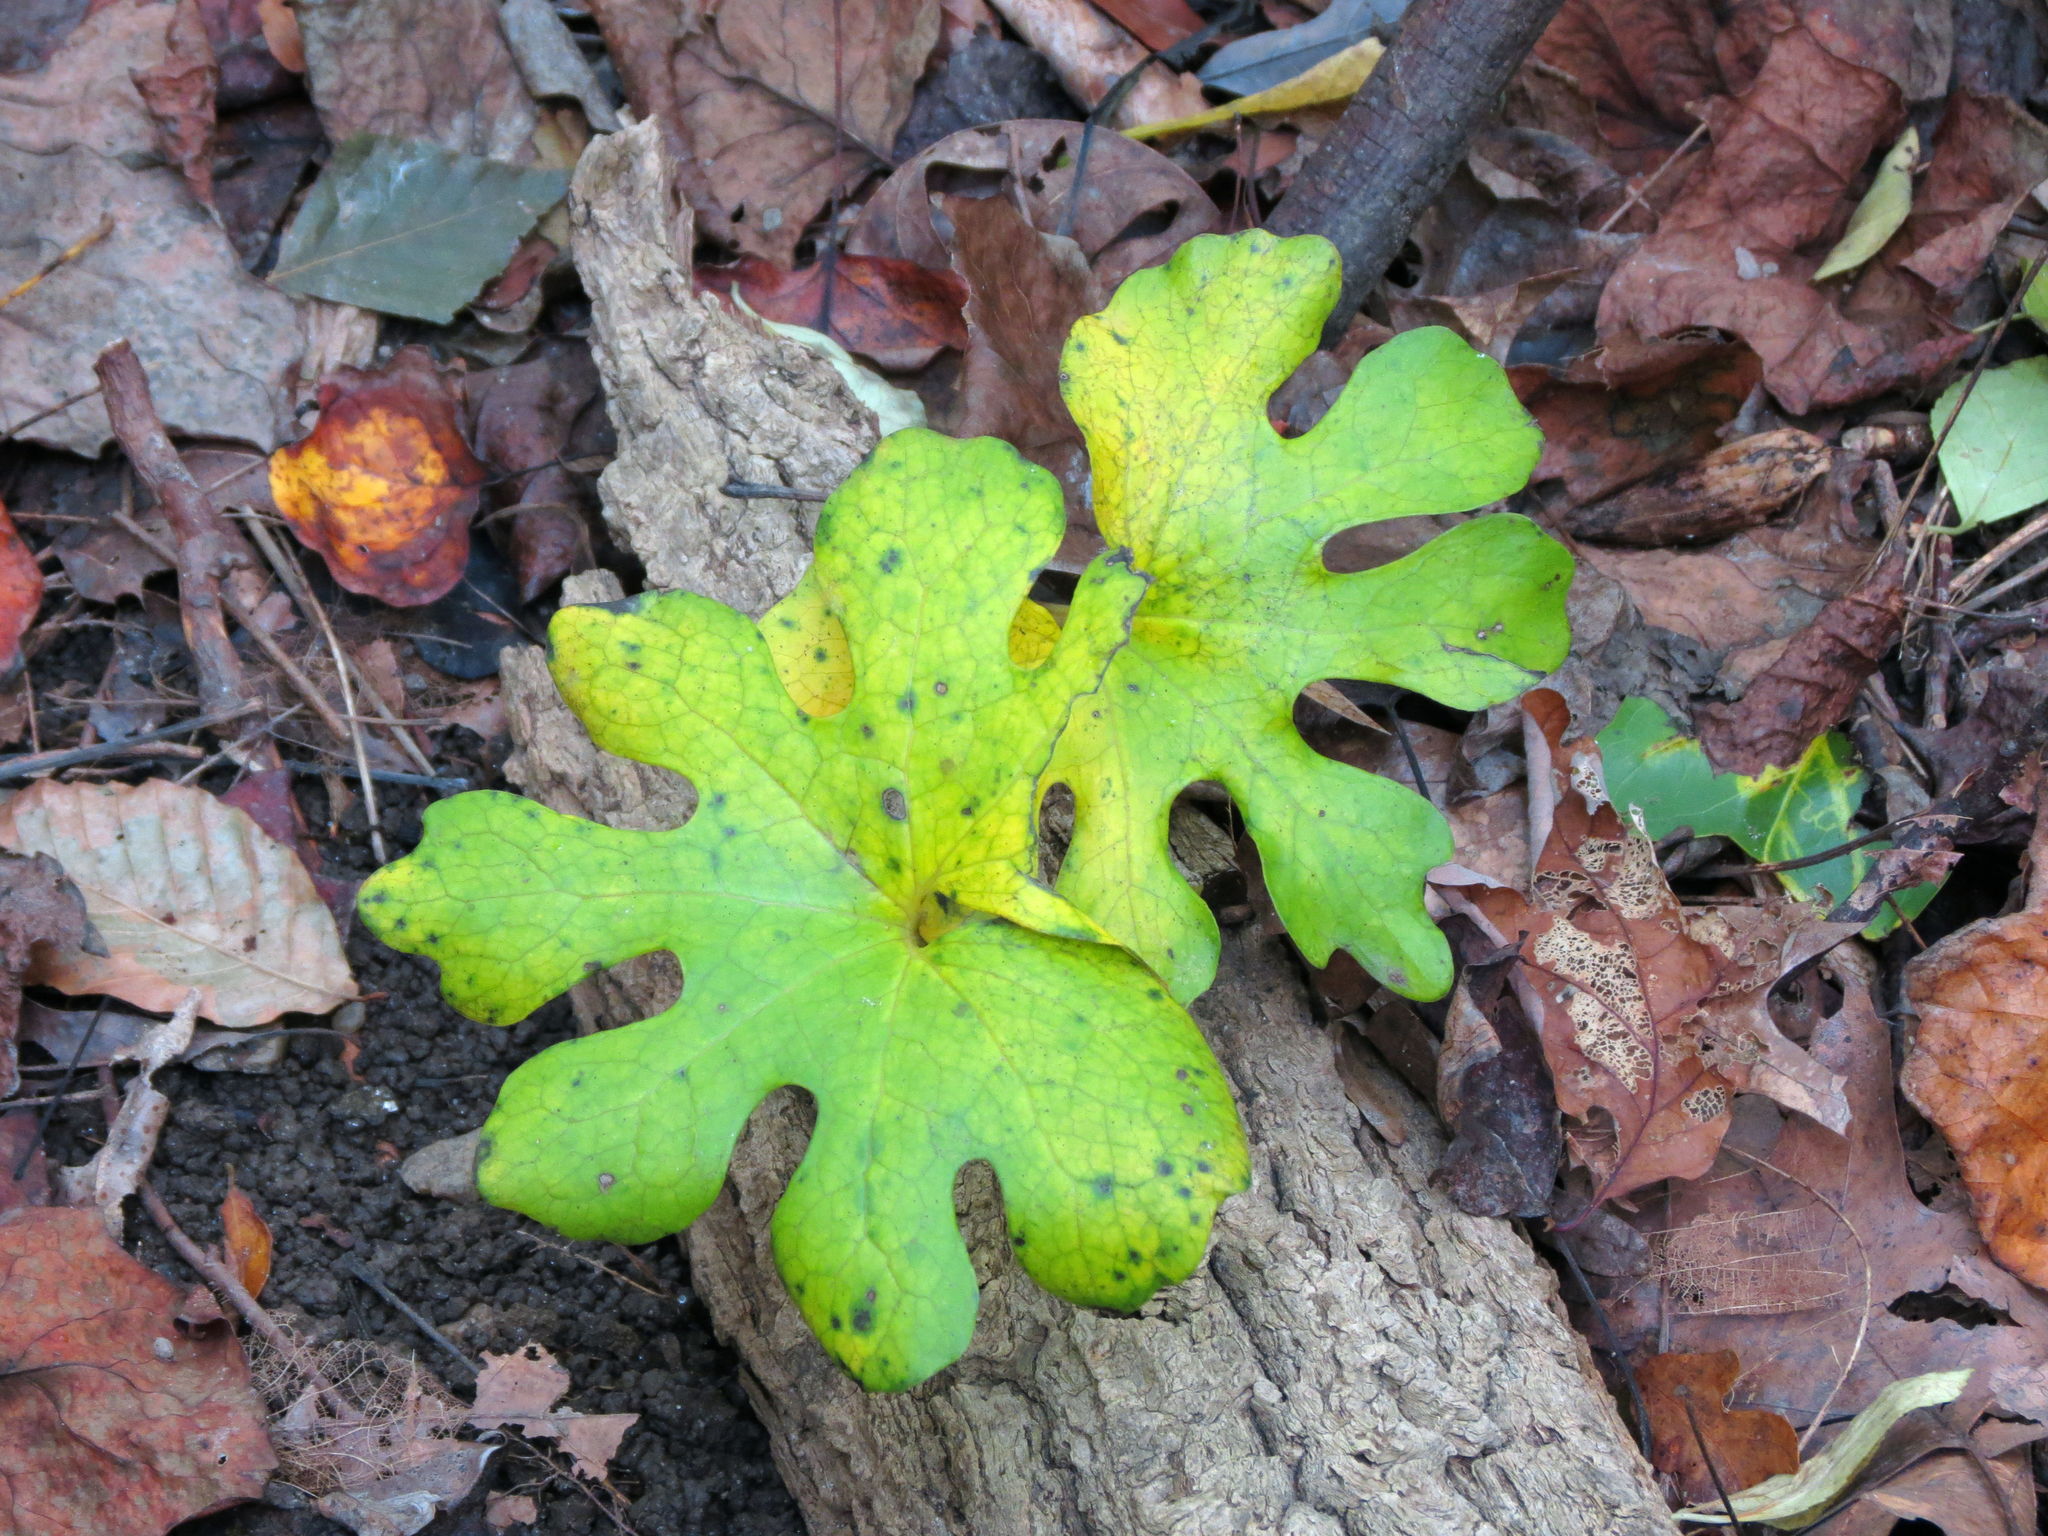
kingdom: Plantae
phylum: Tracheophyta
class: Magnoliopsida
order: Ranunculales
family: Papaveraceae
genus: Sanguinaria
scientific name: Sanguinaria canadensis
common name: Bloodroot
